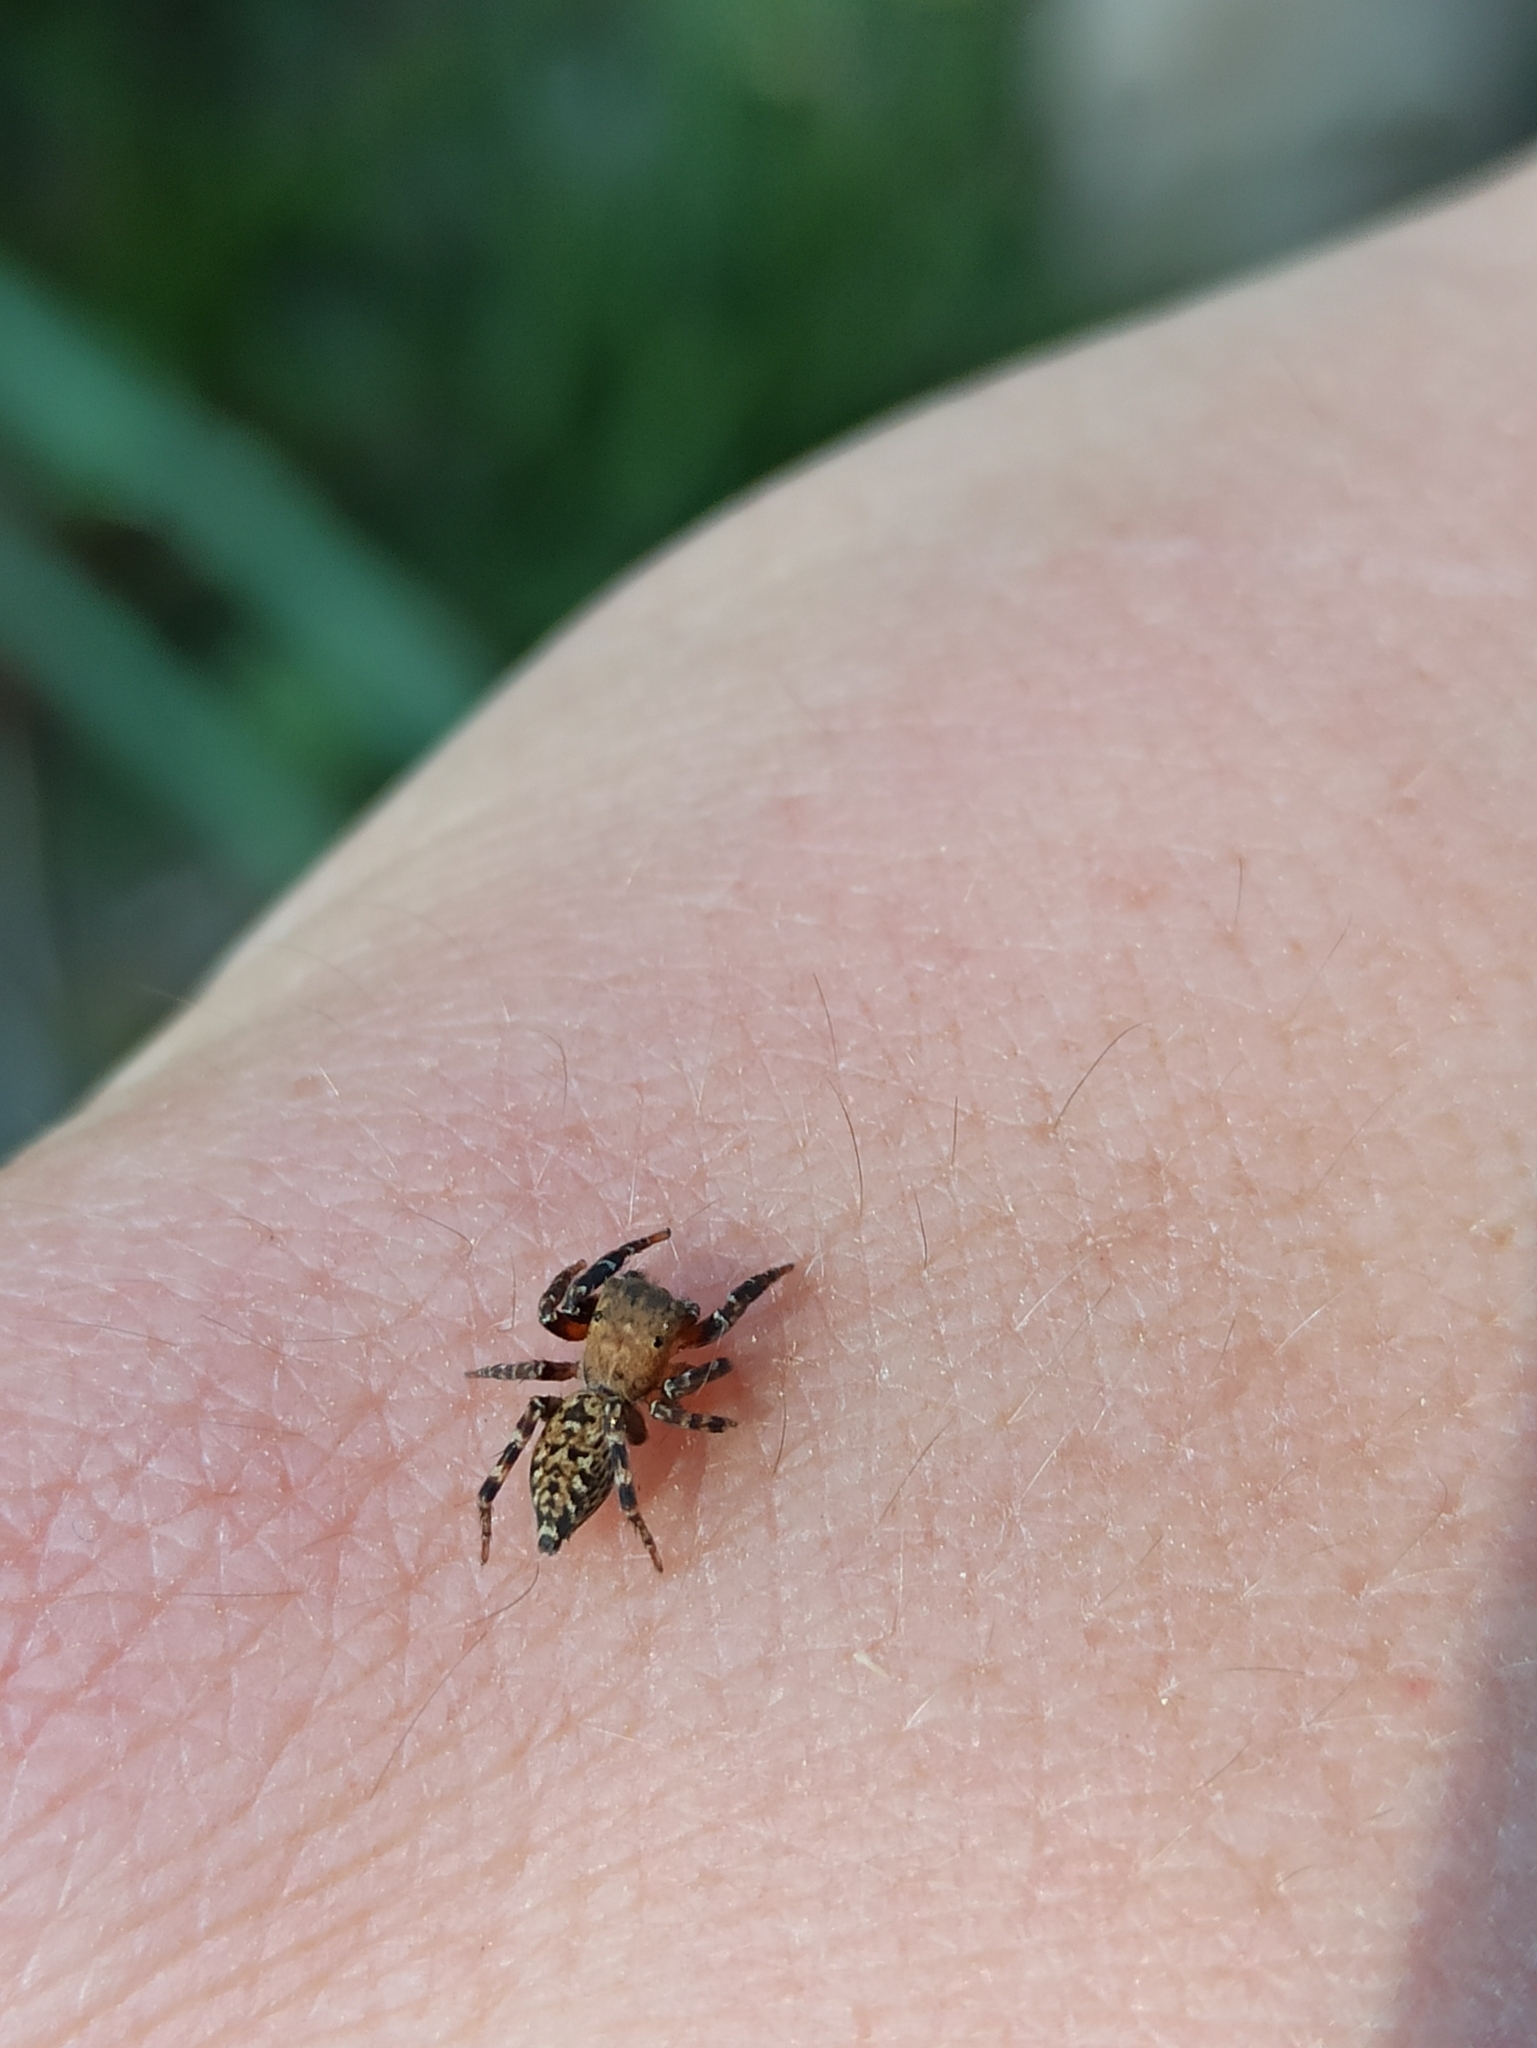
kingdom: Animalia
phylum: Arthropoda
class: Arachnida
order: Araneae
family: Salticidae
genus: Cyrba
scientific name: Cyrba algerina
